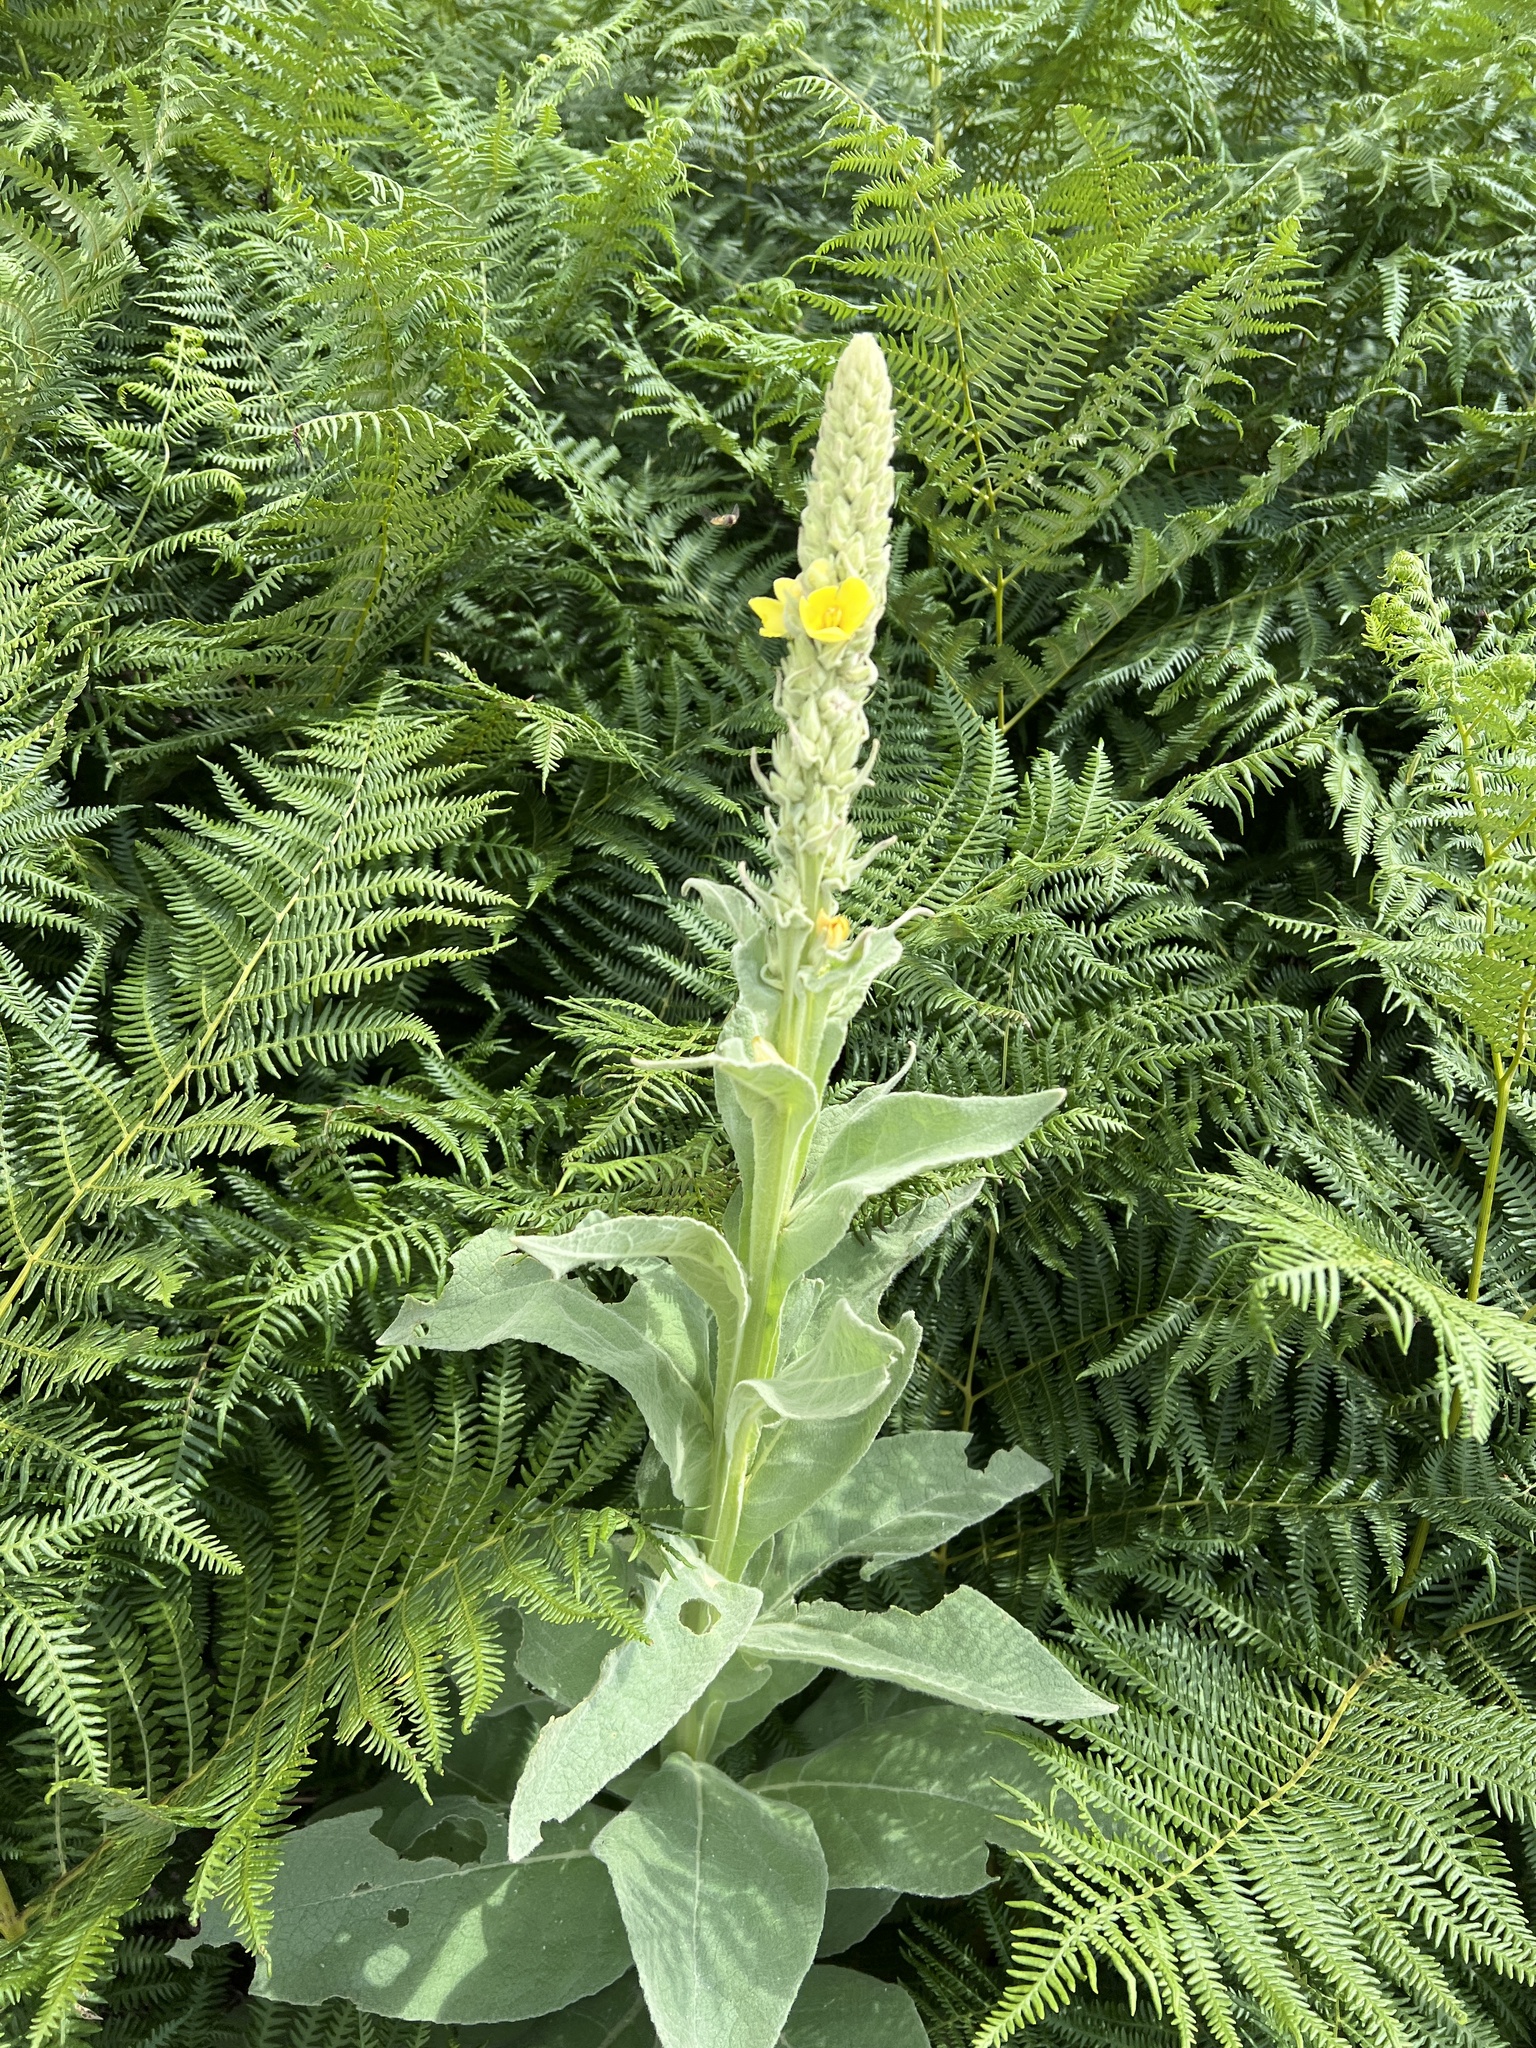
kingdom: Plantae
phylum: Tracheophyta
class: Magnoliopsida
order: Lamiales
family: Scrophulariaceae
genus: Verbascum
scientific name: Verbascum thapsus
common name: Common mullein
